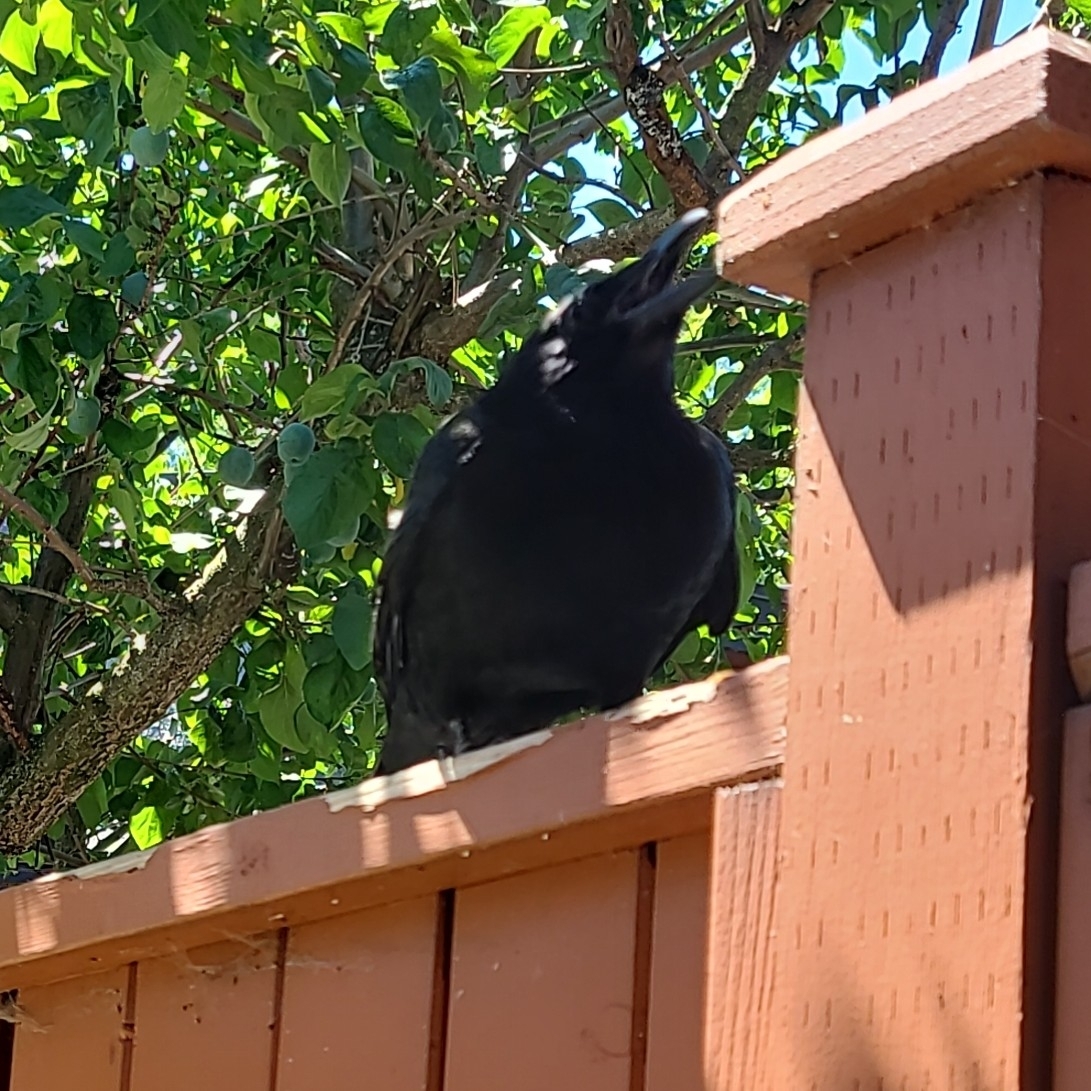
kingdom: Animalia
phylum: Chordata
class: Aves
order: Passeriformes
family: Corvidae
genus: Corvus
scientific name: Corvus brachyrhynchos
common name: American crow
